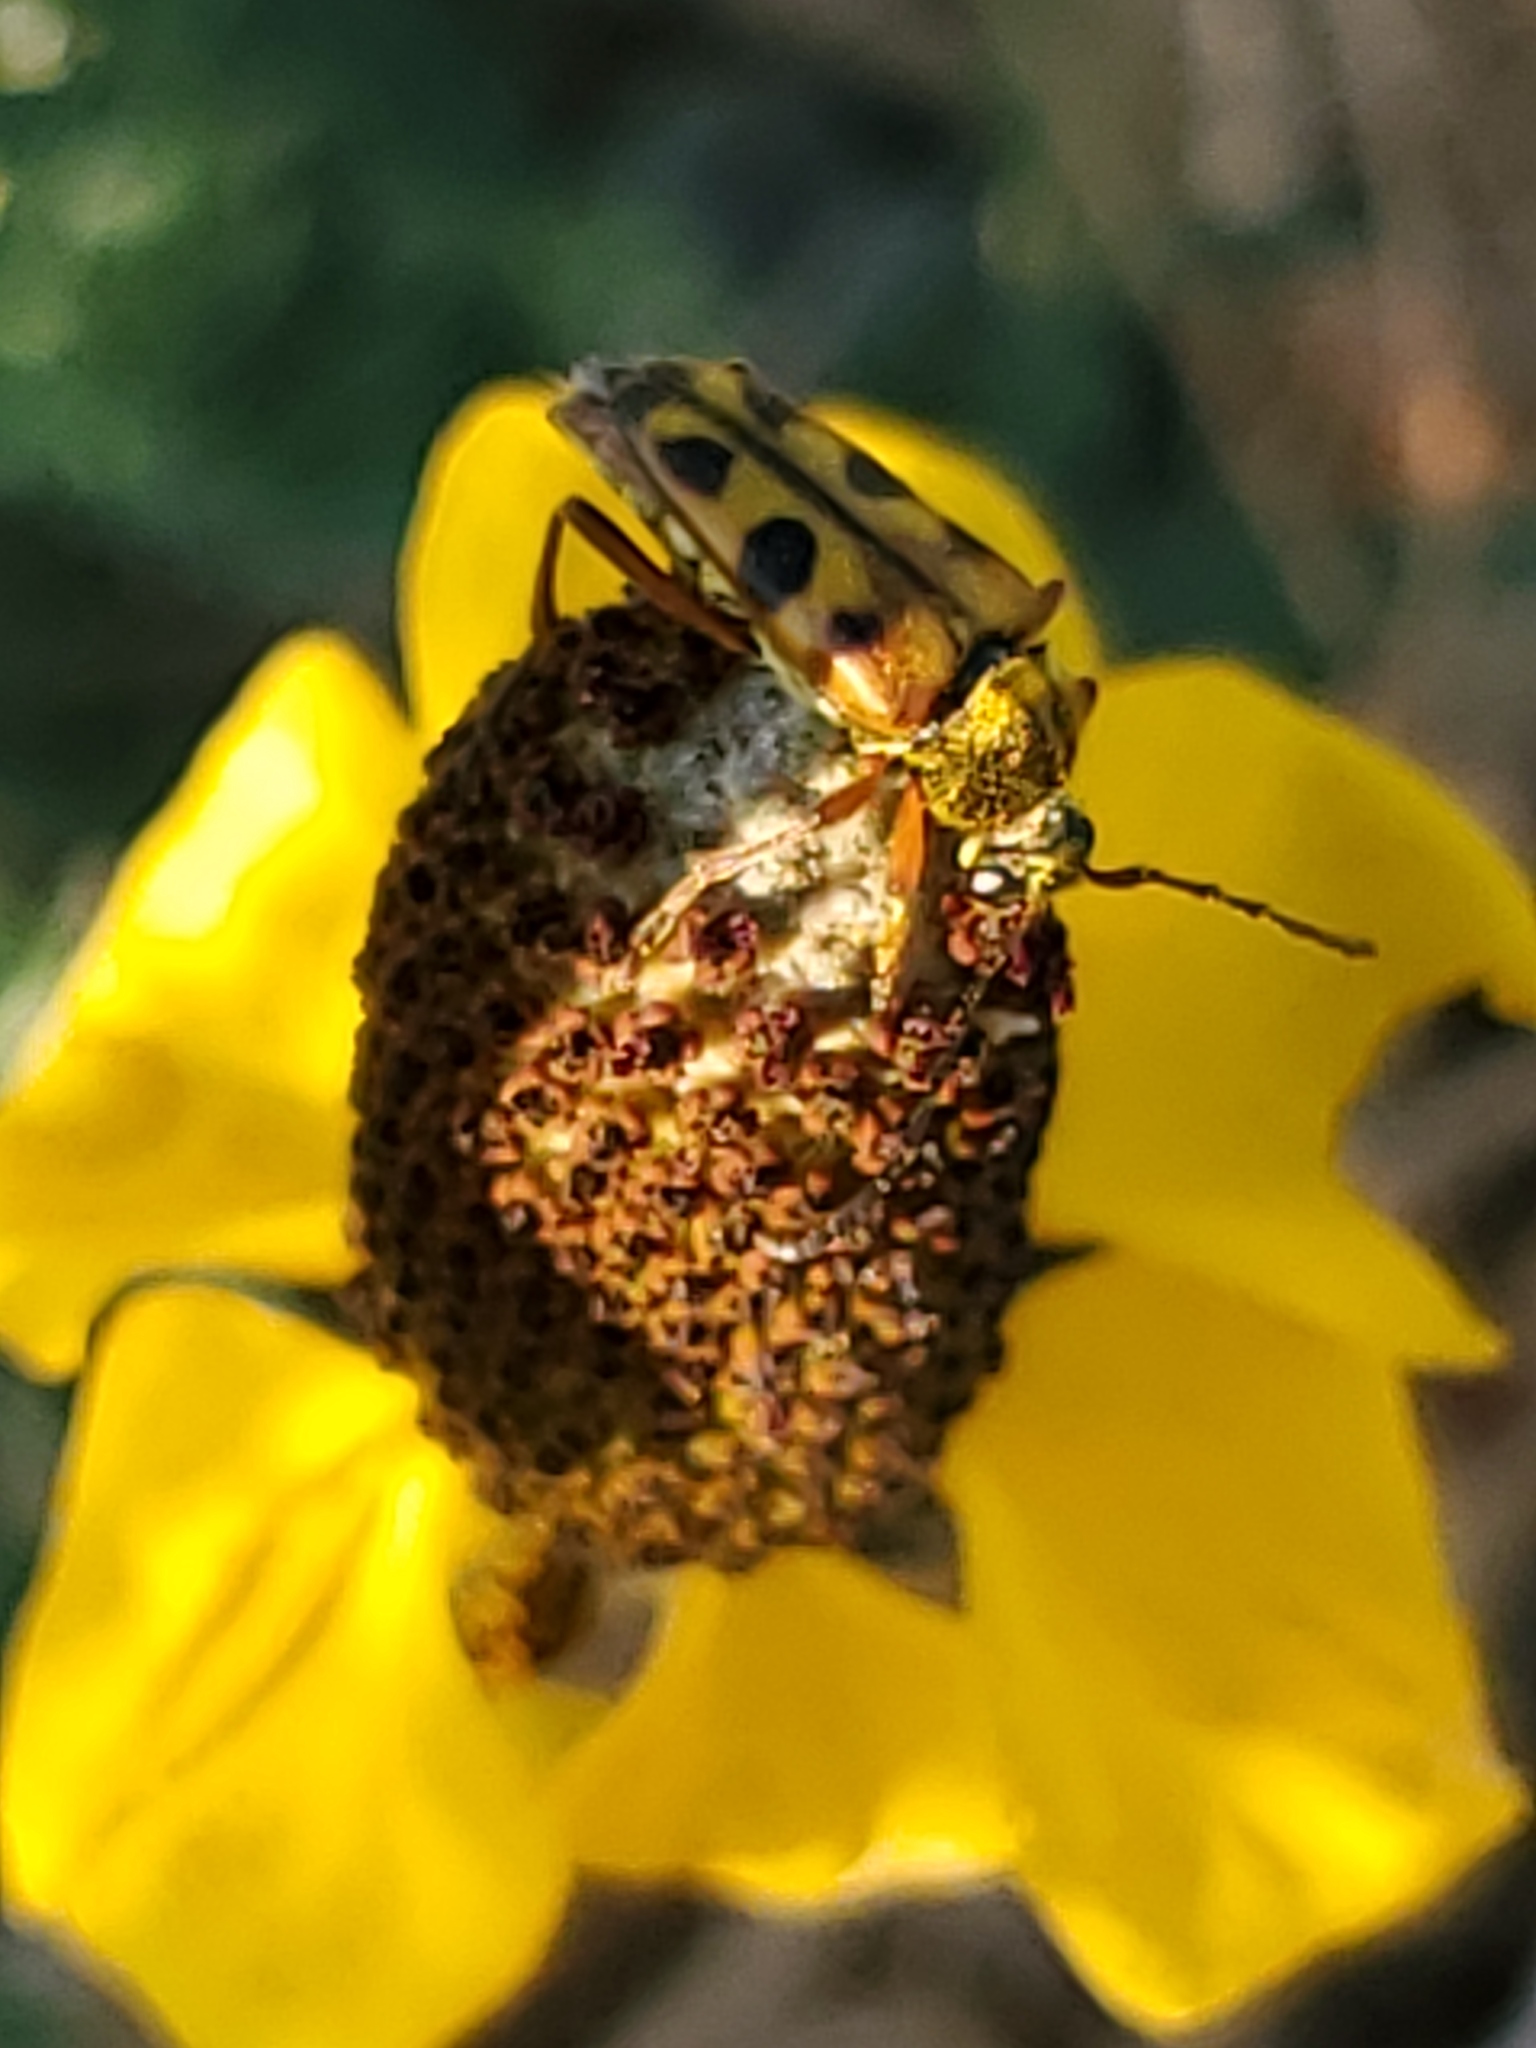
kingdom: Animalia
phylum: Arthropoda
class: Insecta
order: Coleoptera
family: Cerambycidae
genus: Typocerus
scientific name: Typocerus
